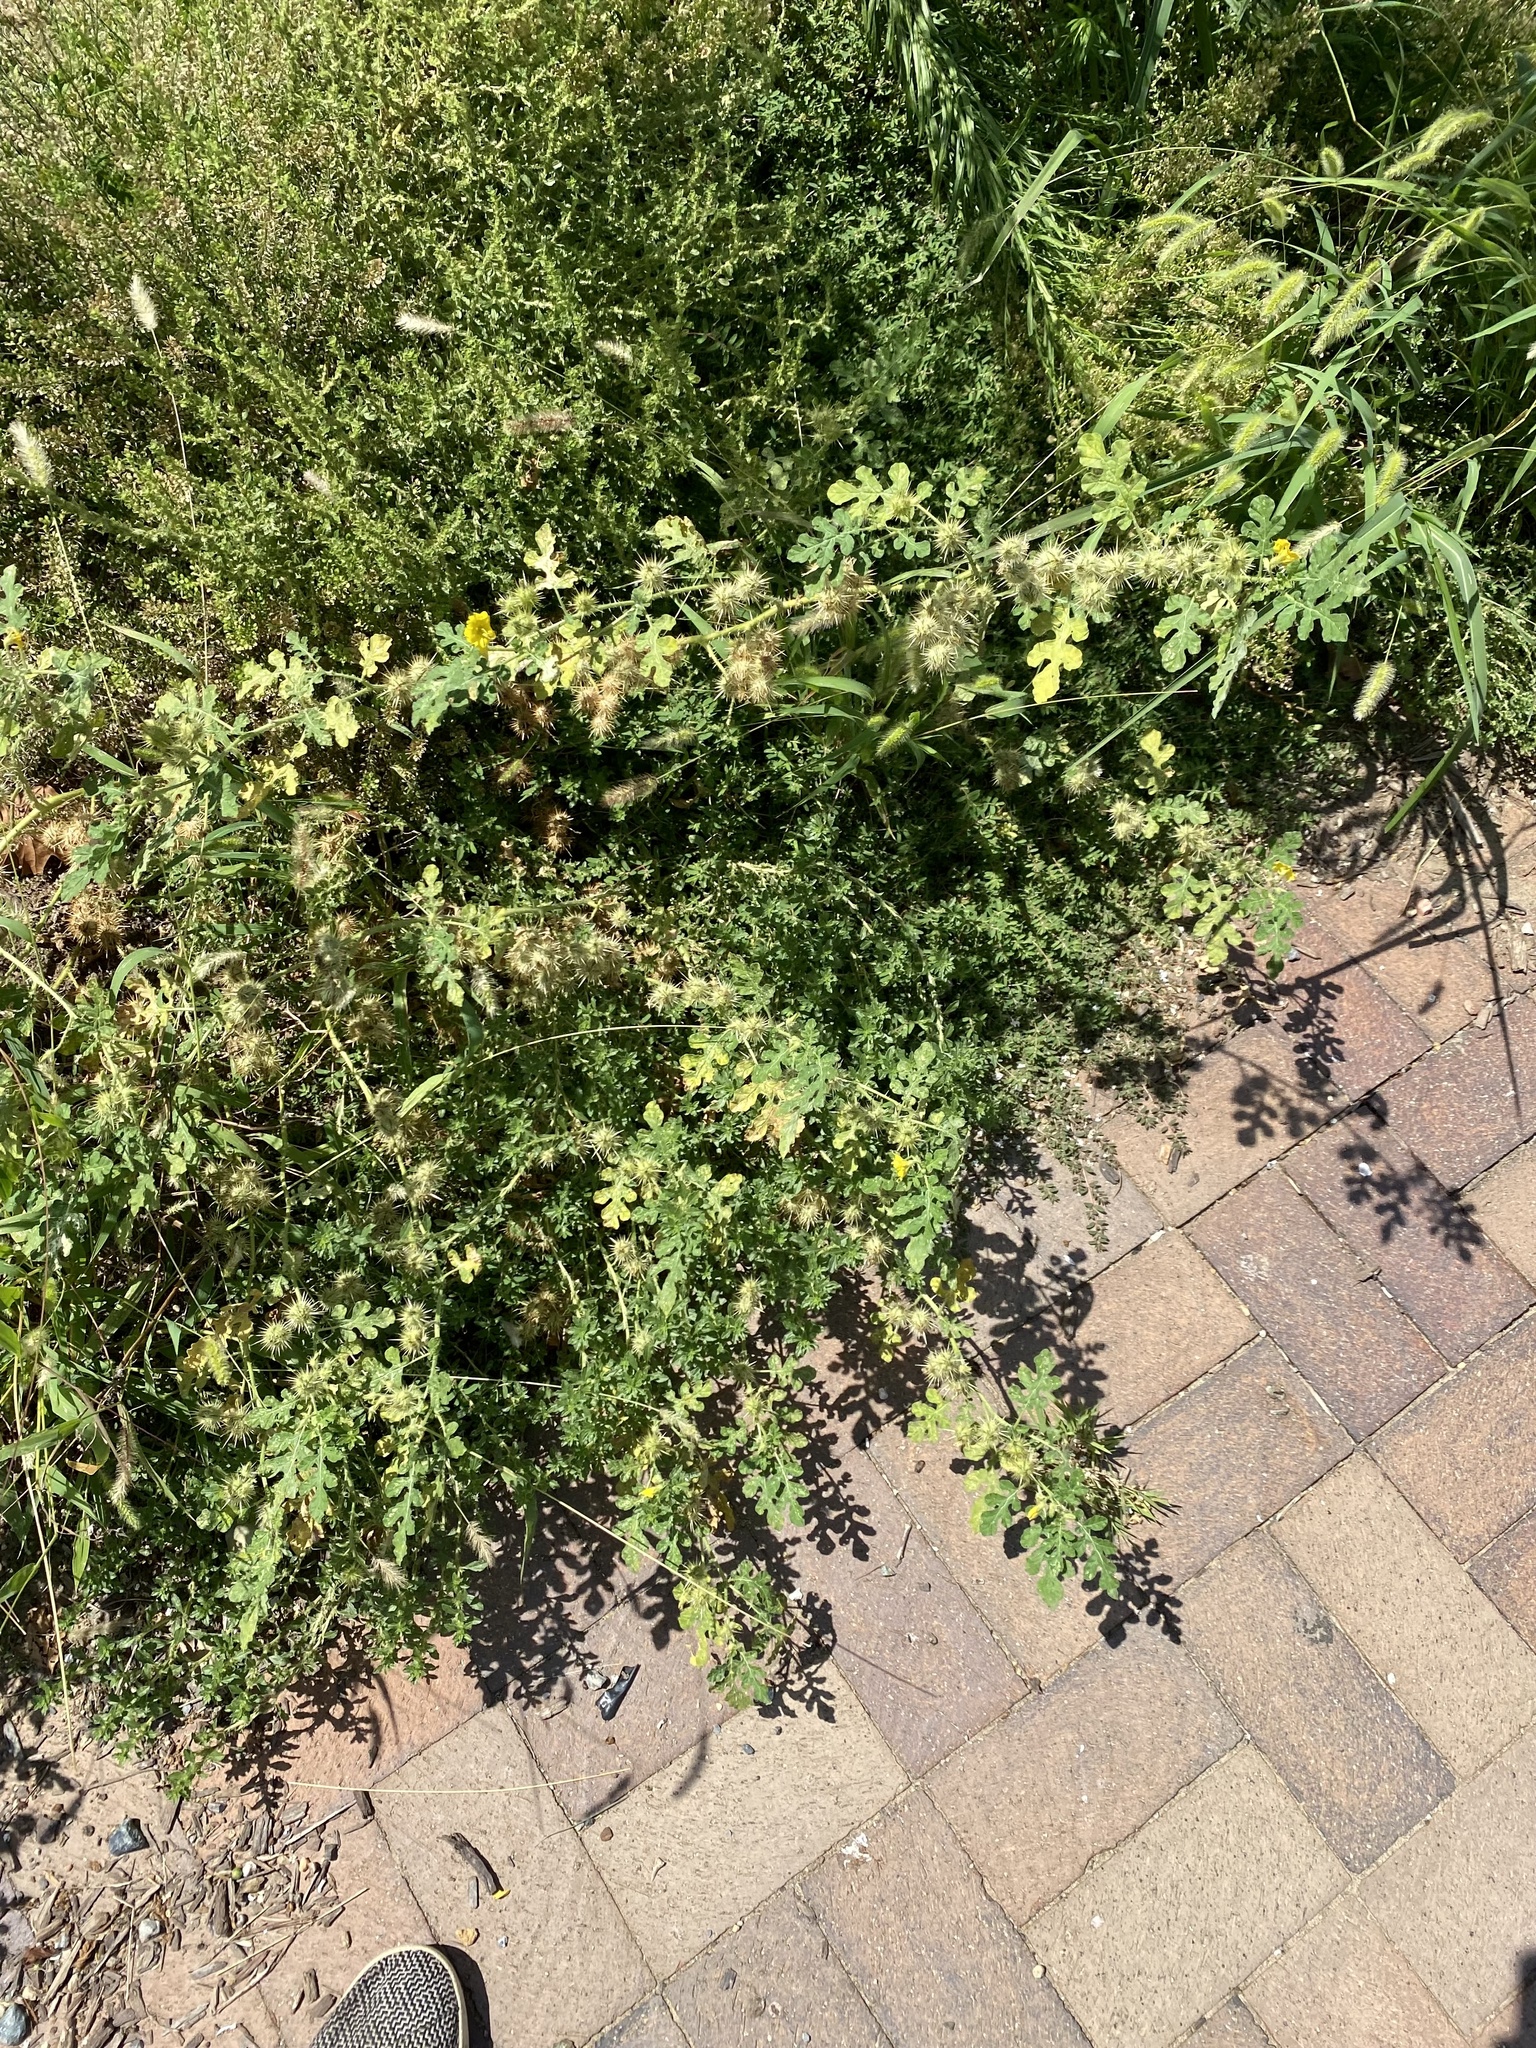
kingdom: Plantae
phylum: Tracheophyta
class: Magnoliopsida
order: Solanales
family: Solanaceae
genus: Solanum
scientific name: Solanum angustifolium
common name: Buffalobur nightshade
